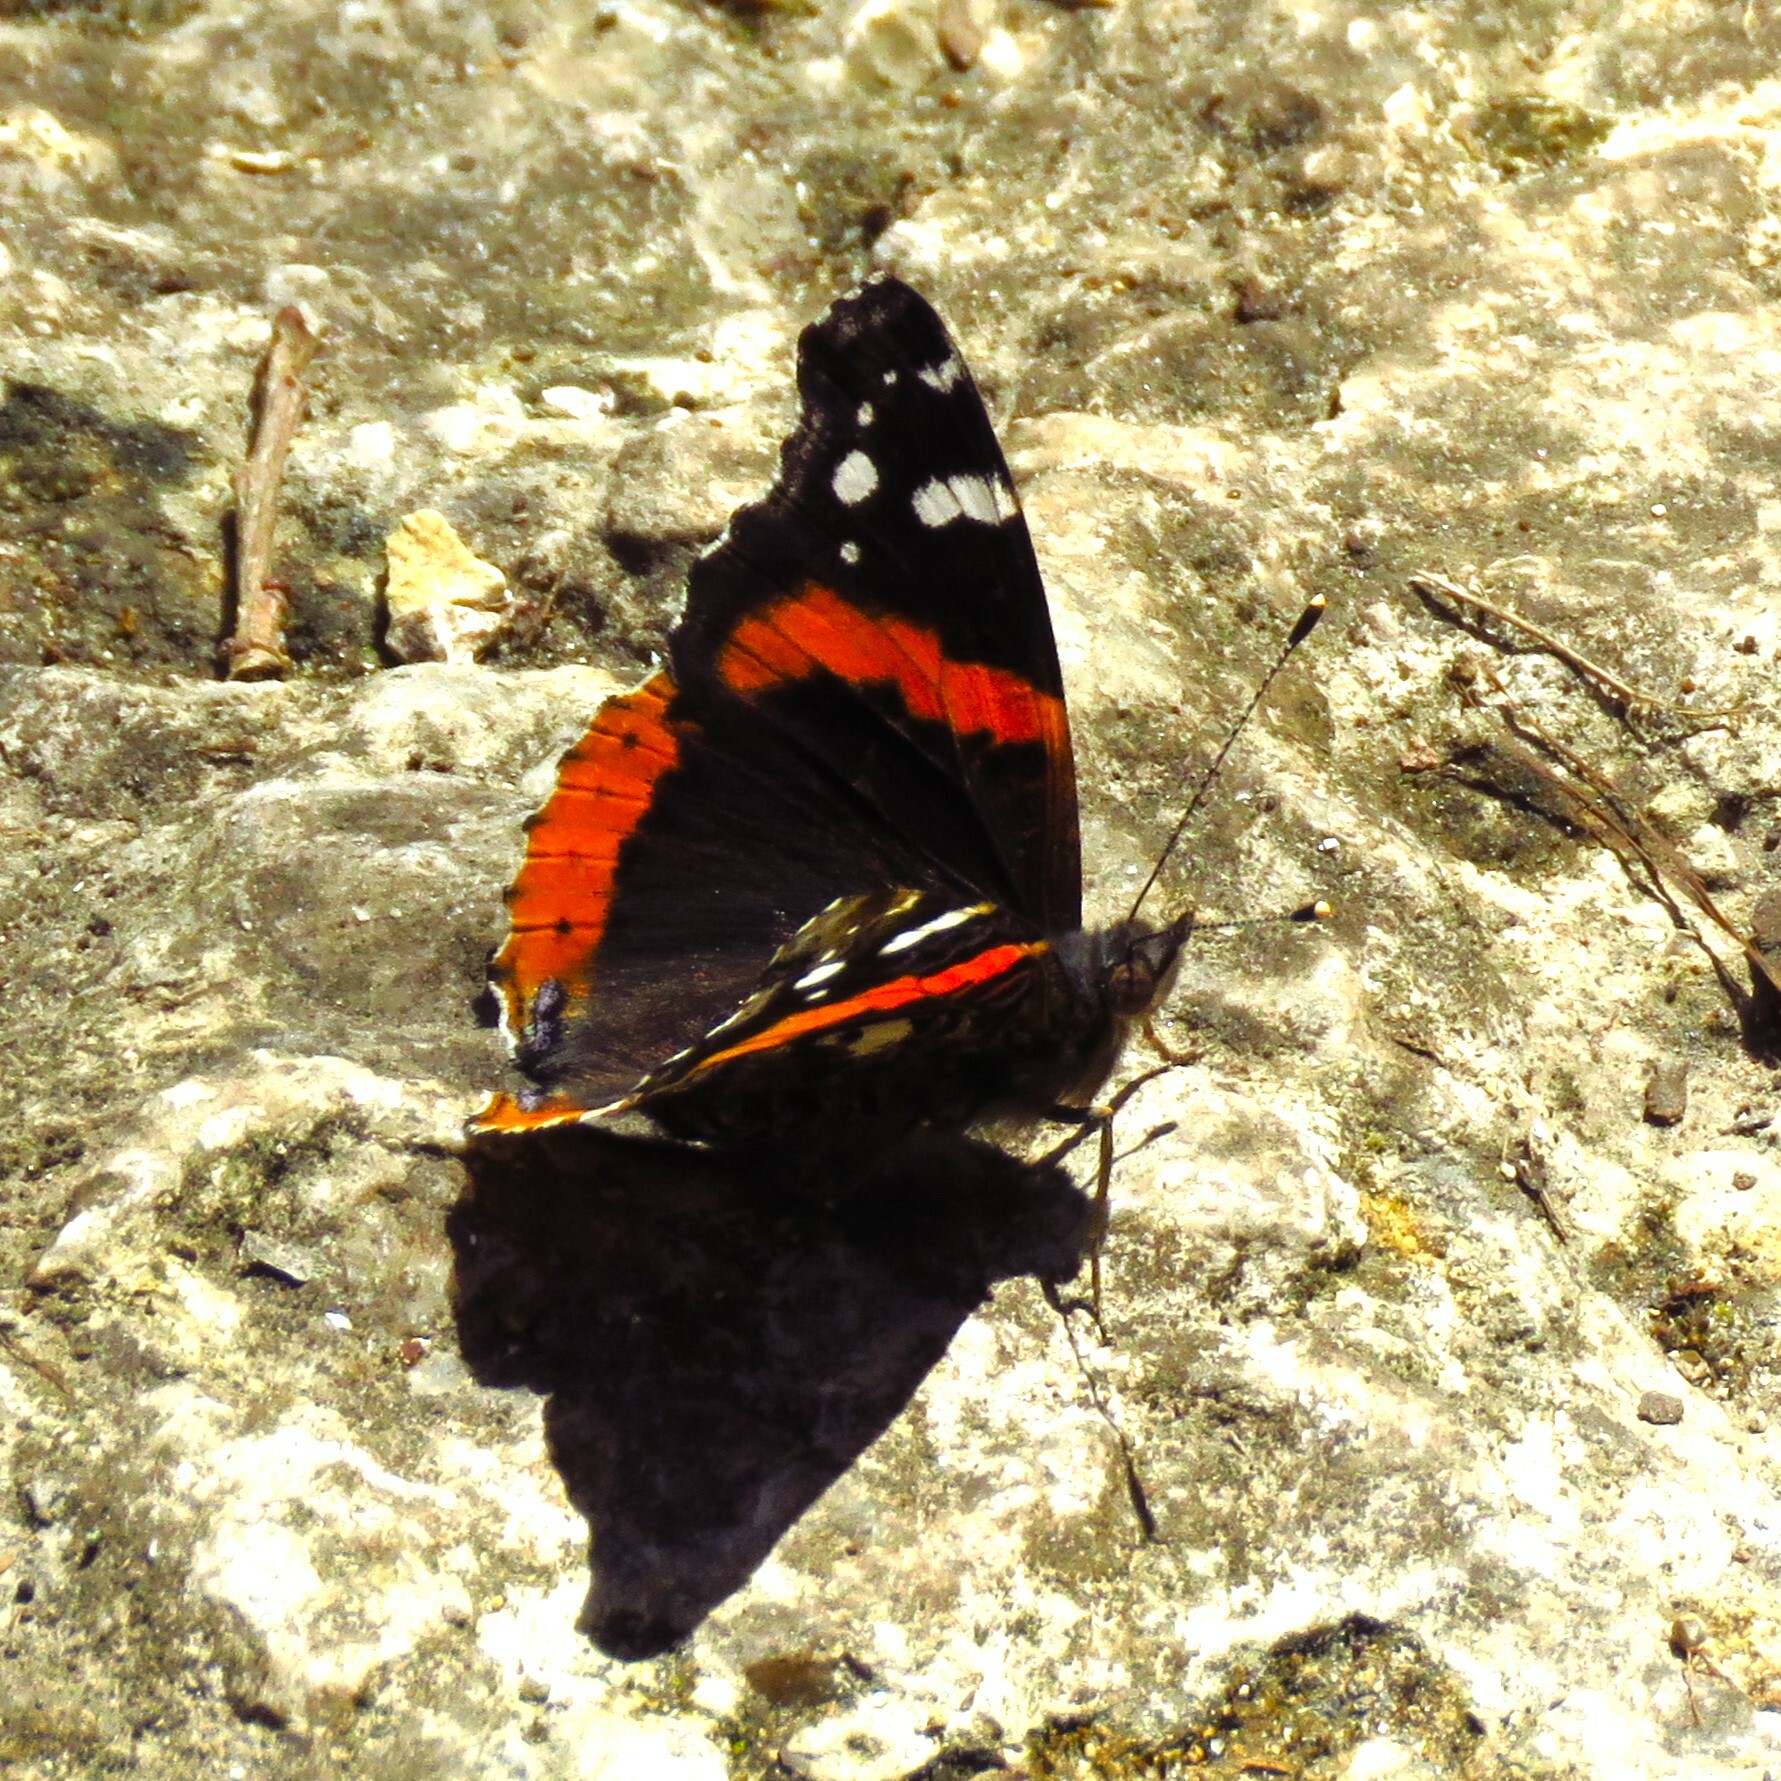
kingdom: Animalia
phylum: Arthropoda
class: Insecta
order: Lepidoptera
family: Nymphalidae
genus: Vanessa
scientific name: Vanessa atalanta
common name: Red admiral
